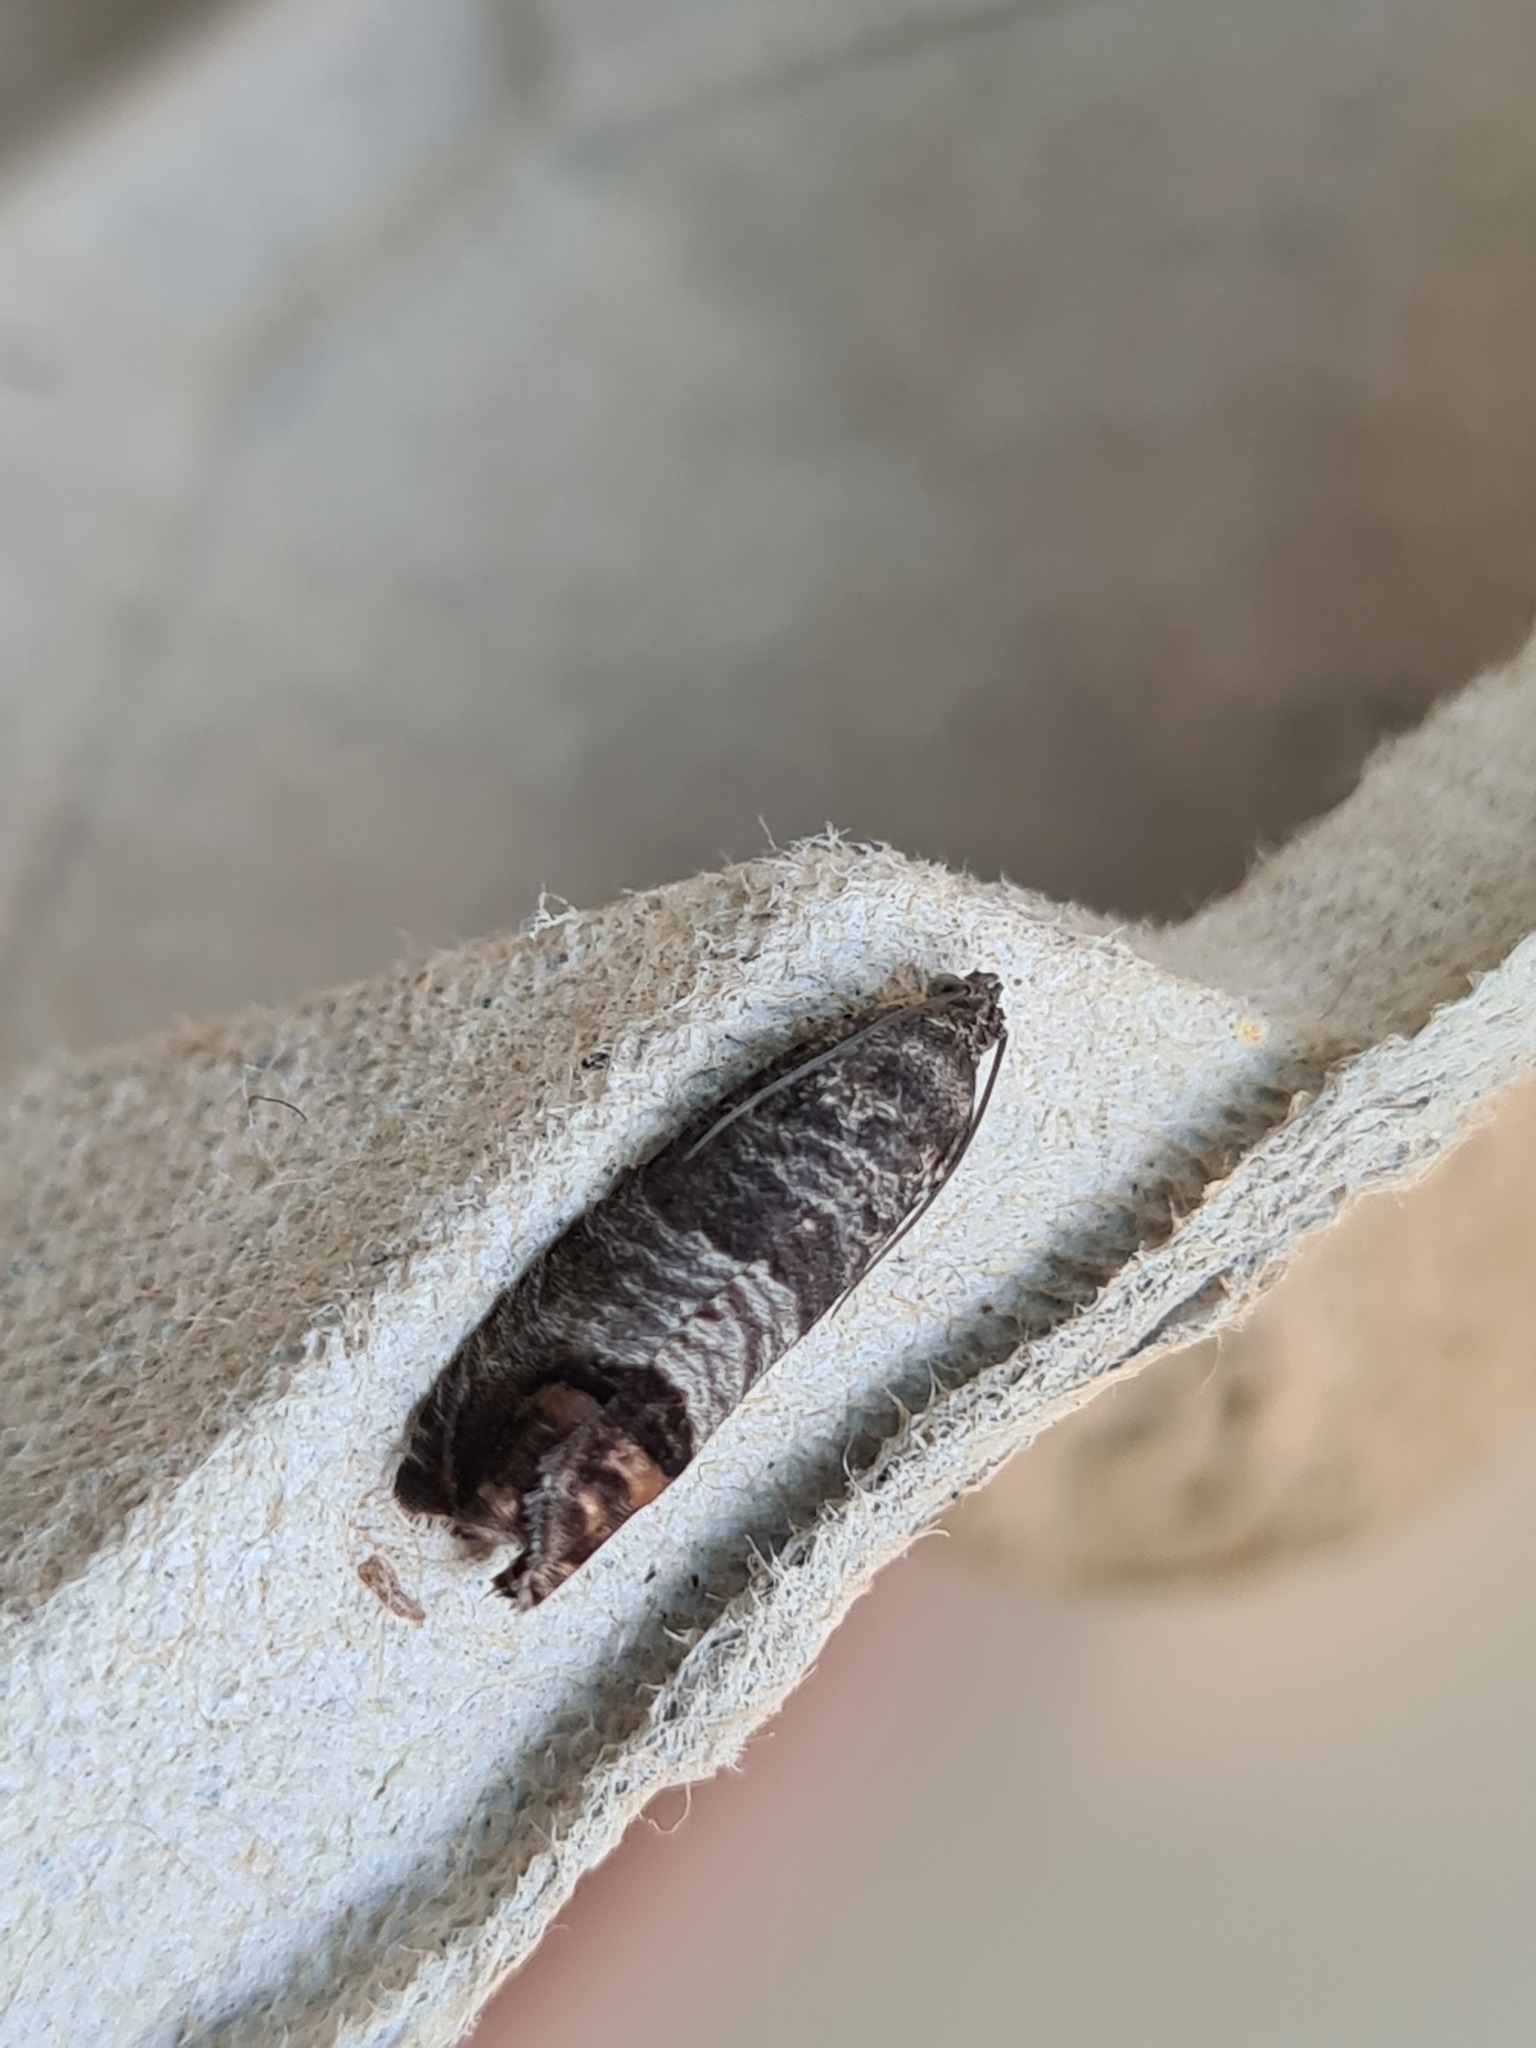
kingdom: Animalia
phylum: Arthropoda
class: Insecta
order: Lepidoptera
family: Tortricidae
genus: Cydia
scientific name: Cydia pomonella
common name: Codling moth
